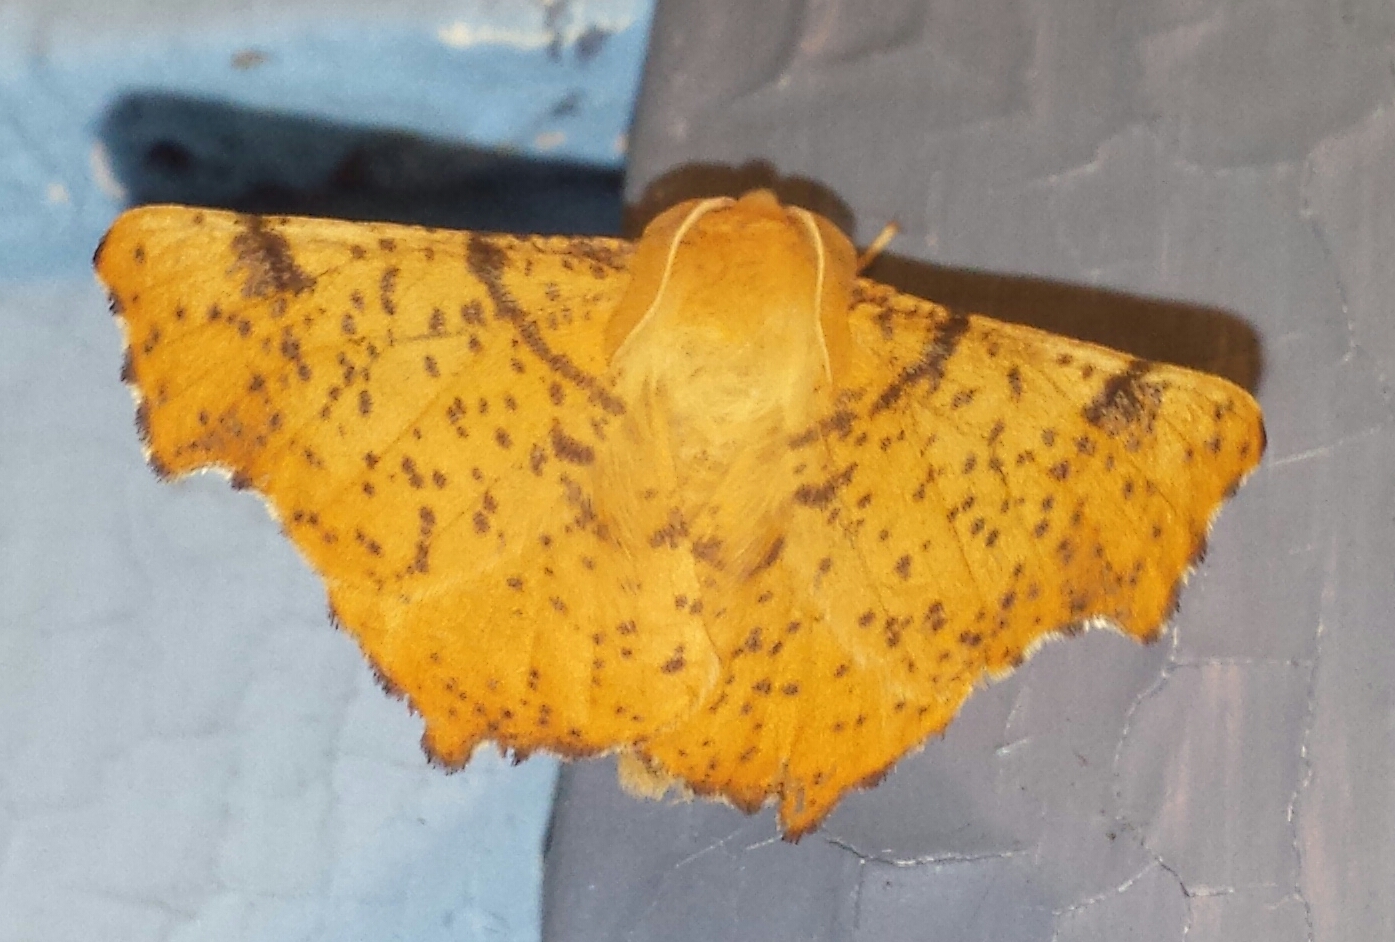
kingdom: Animalia
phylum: Arthropoda
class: Insecta
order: Lepidoptera
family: Geometridae
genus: Ennomos
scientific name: Ennomos magnaria
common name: Maple spanworm
